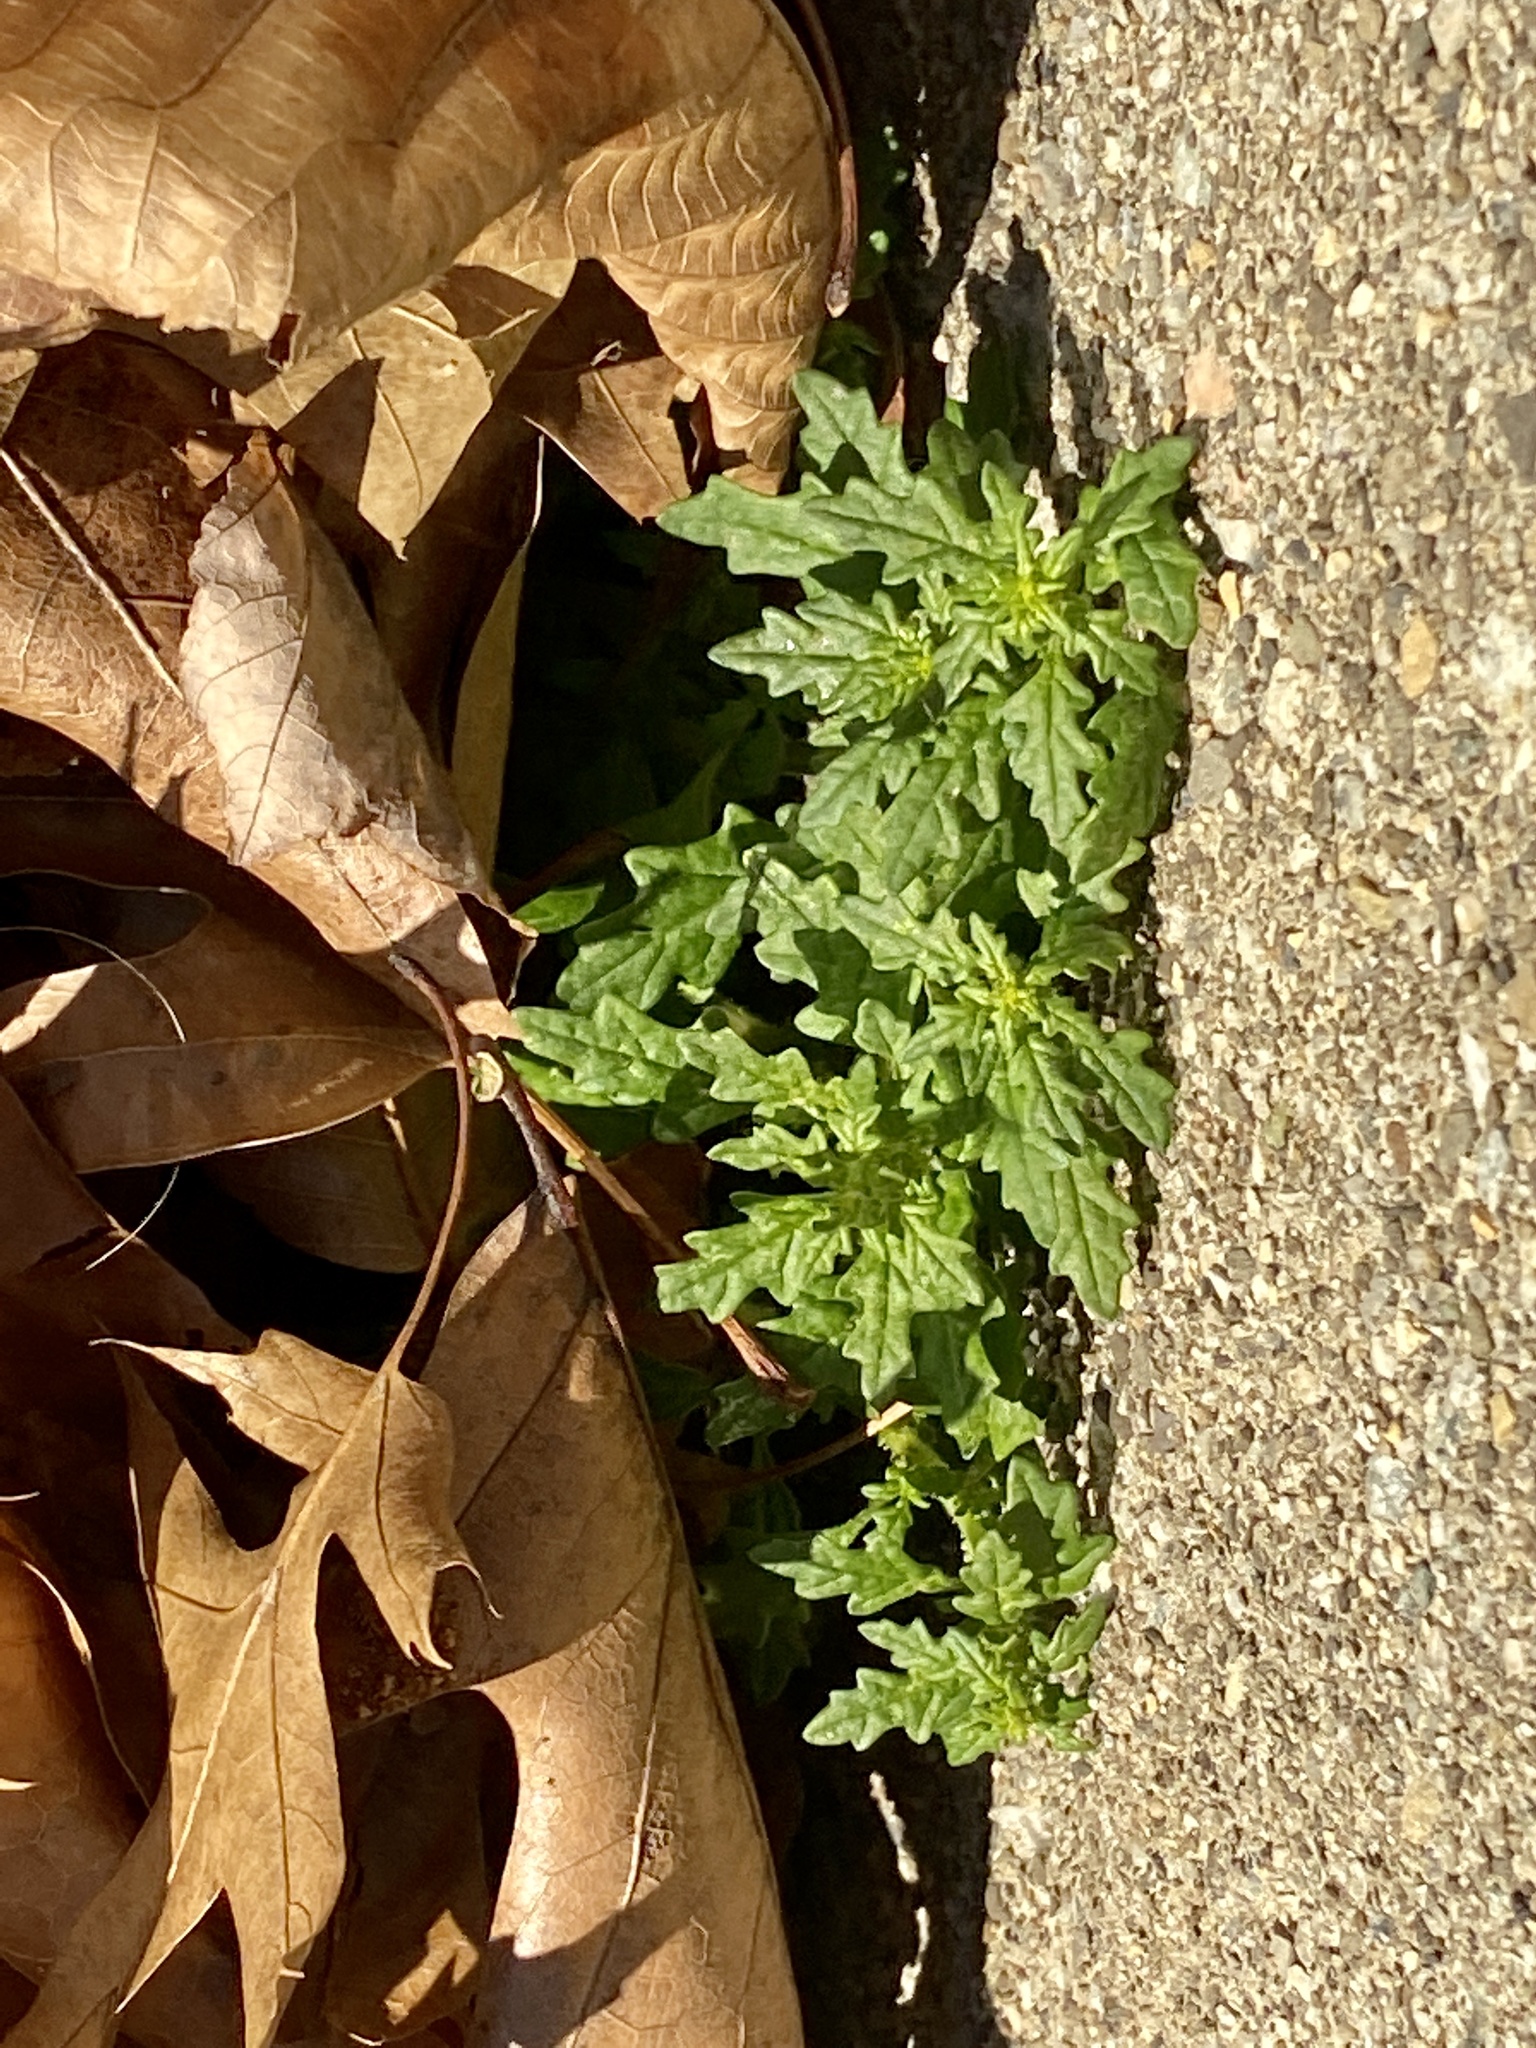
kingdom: Plantae
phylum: Tracheophyta
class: Magnoliopsida
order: Caryophyllales
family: Amaranthaceae
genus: Dysphania
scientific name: Dysphania pumilio
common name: Clammy goosefoot
